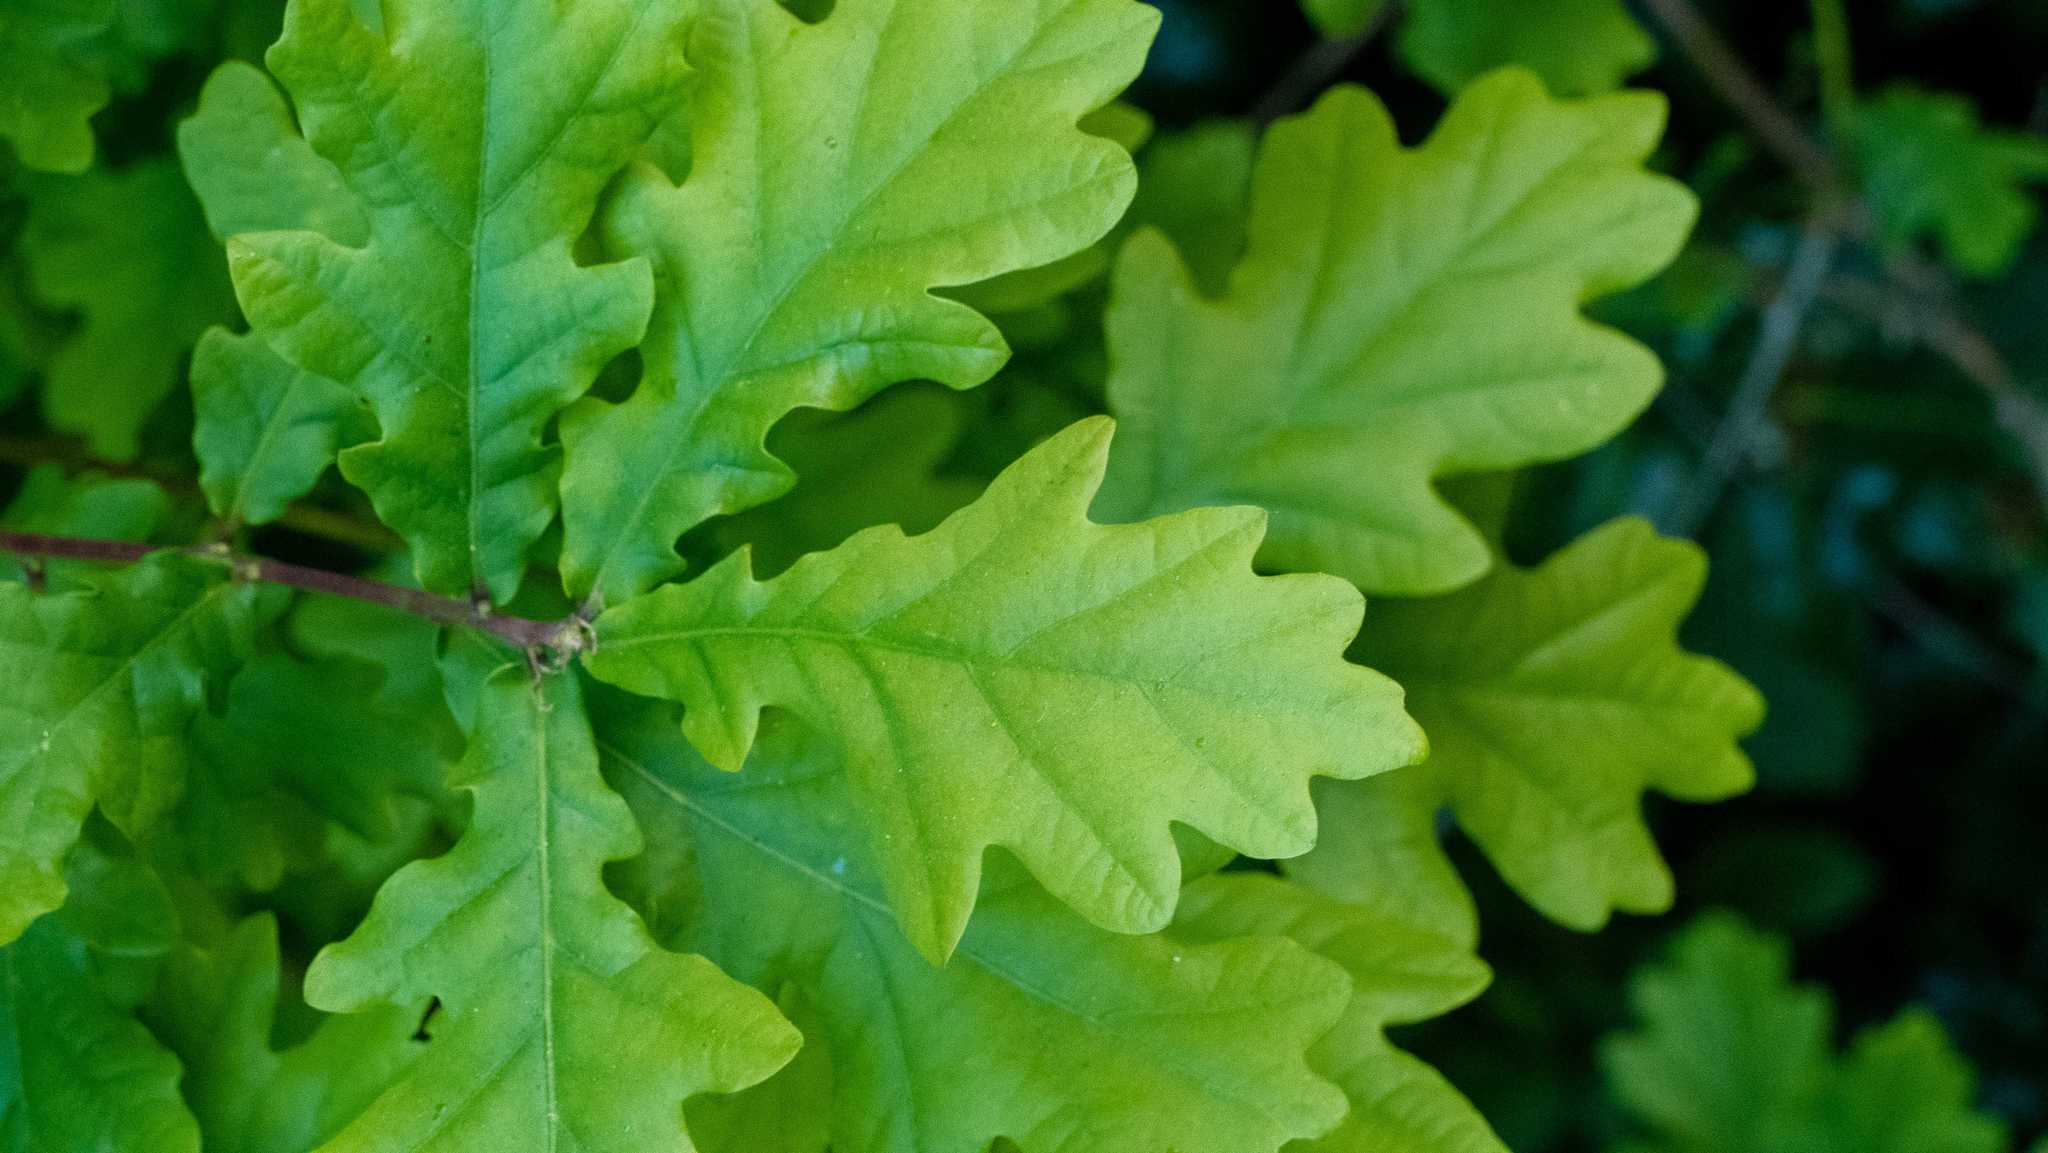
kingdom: Plantae
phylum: Tracheophyta
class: Magnoliopsida
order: Fagales
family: Fagaceae
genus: Quercus
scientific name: Quercus robur
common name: Pedunculate oak
